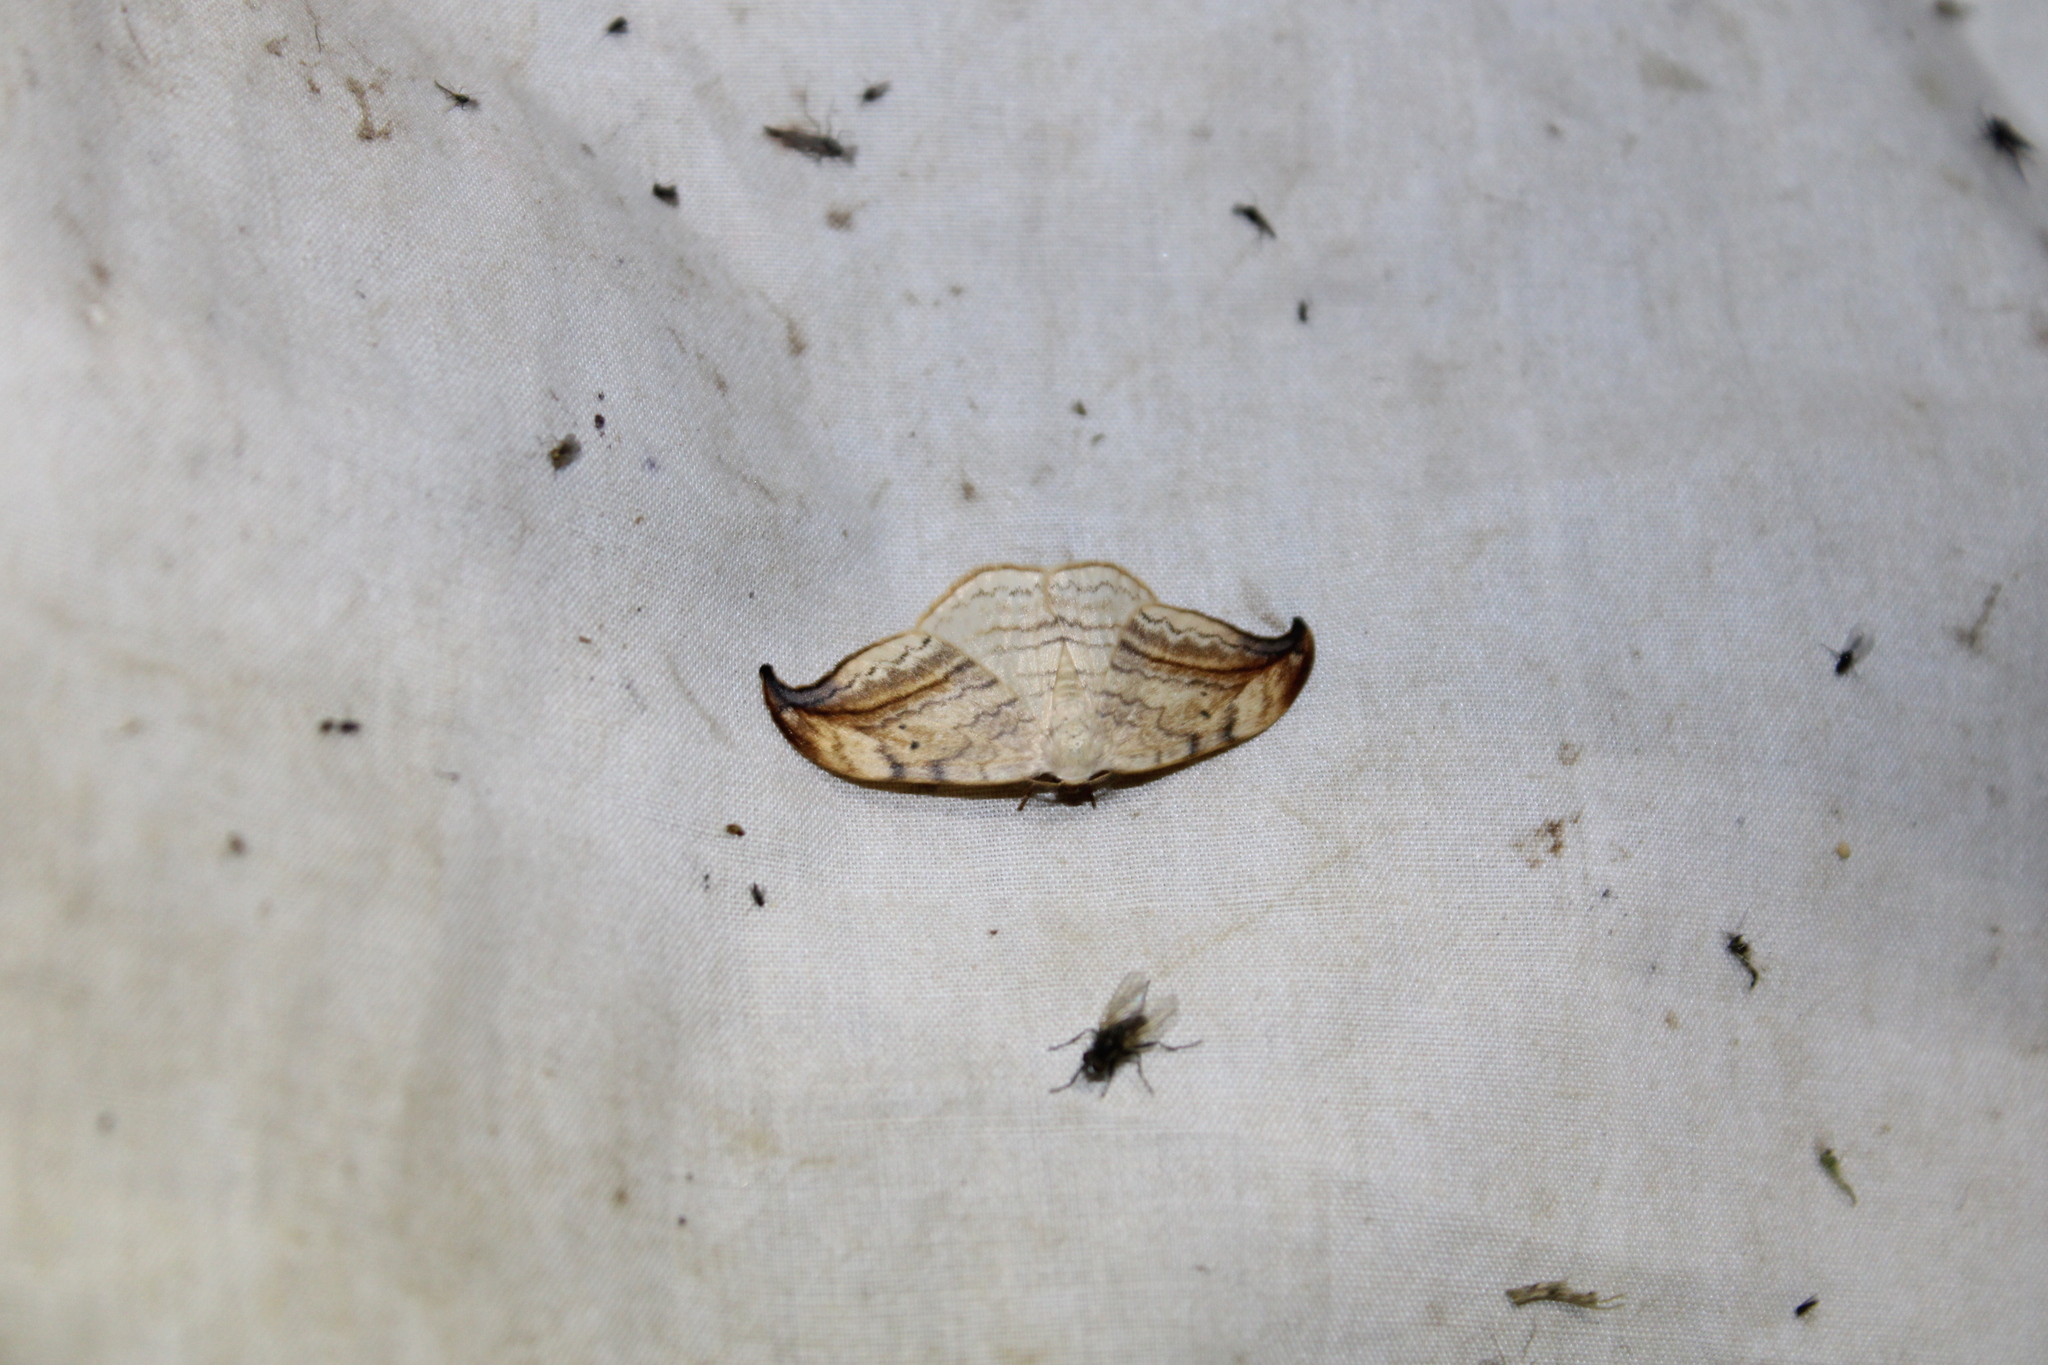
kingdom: Animalia
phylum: Arthropoda
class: Insecta
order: Lepidoptera
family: Drepanidae
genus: Drepana
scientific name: Drepana arcuata
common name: Arched hooktip moth
